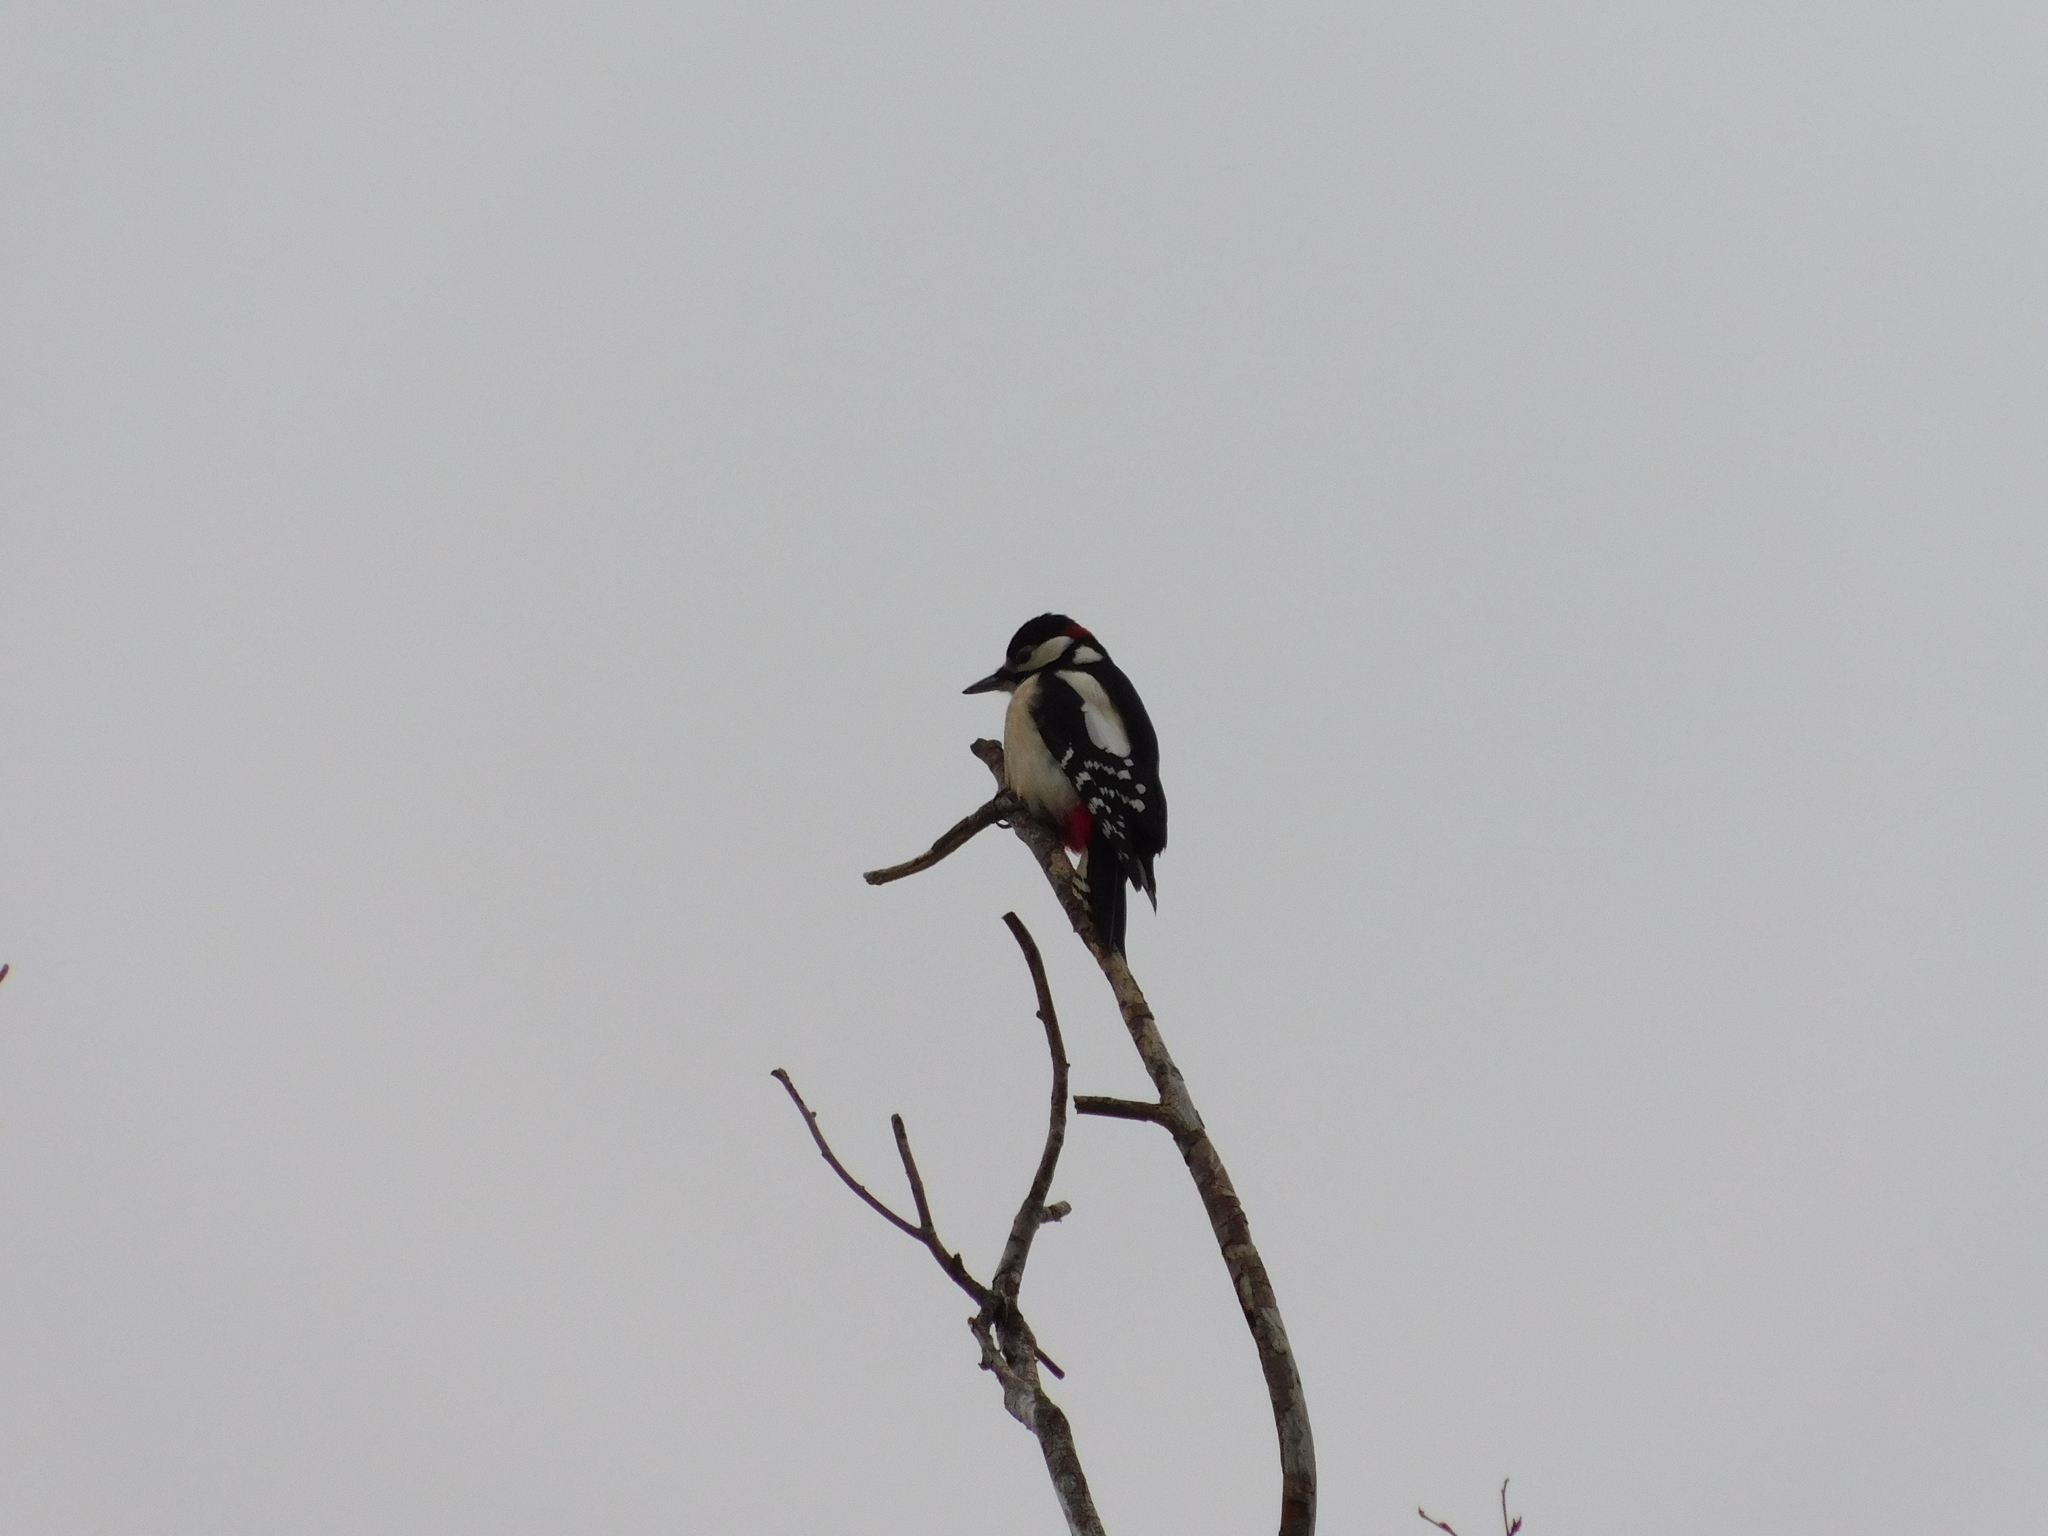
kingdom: Animalia
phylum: Chordata
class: Aves
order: Piciformes
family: Picidae
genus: Dendrocopos
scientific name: Dendrocopos major
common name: Great spotted woodpecker
